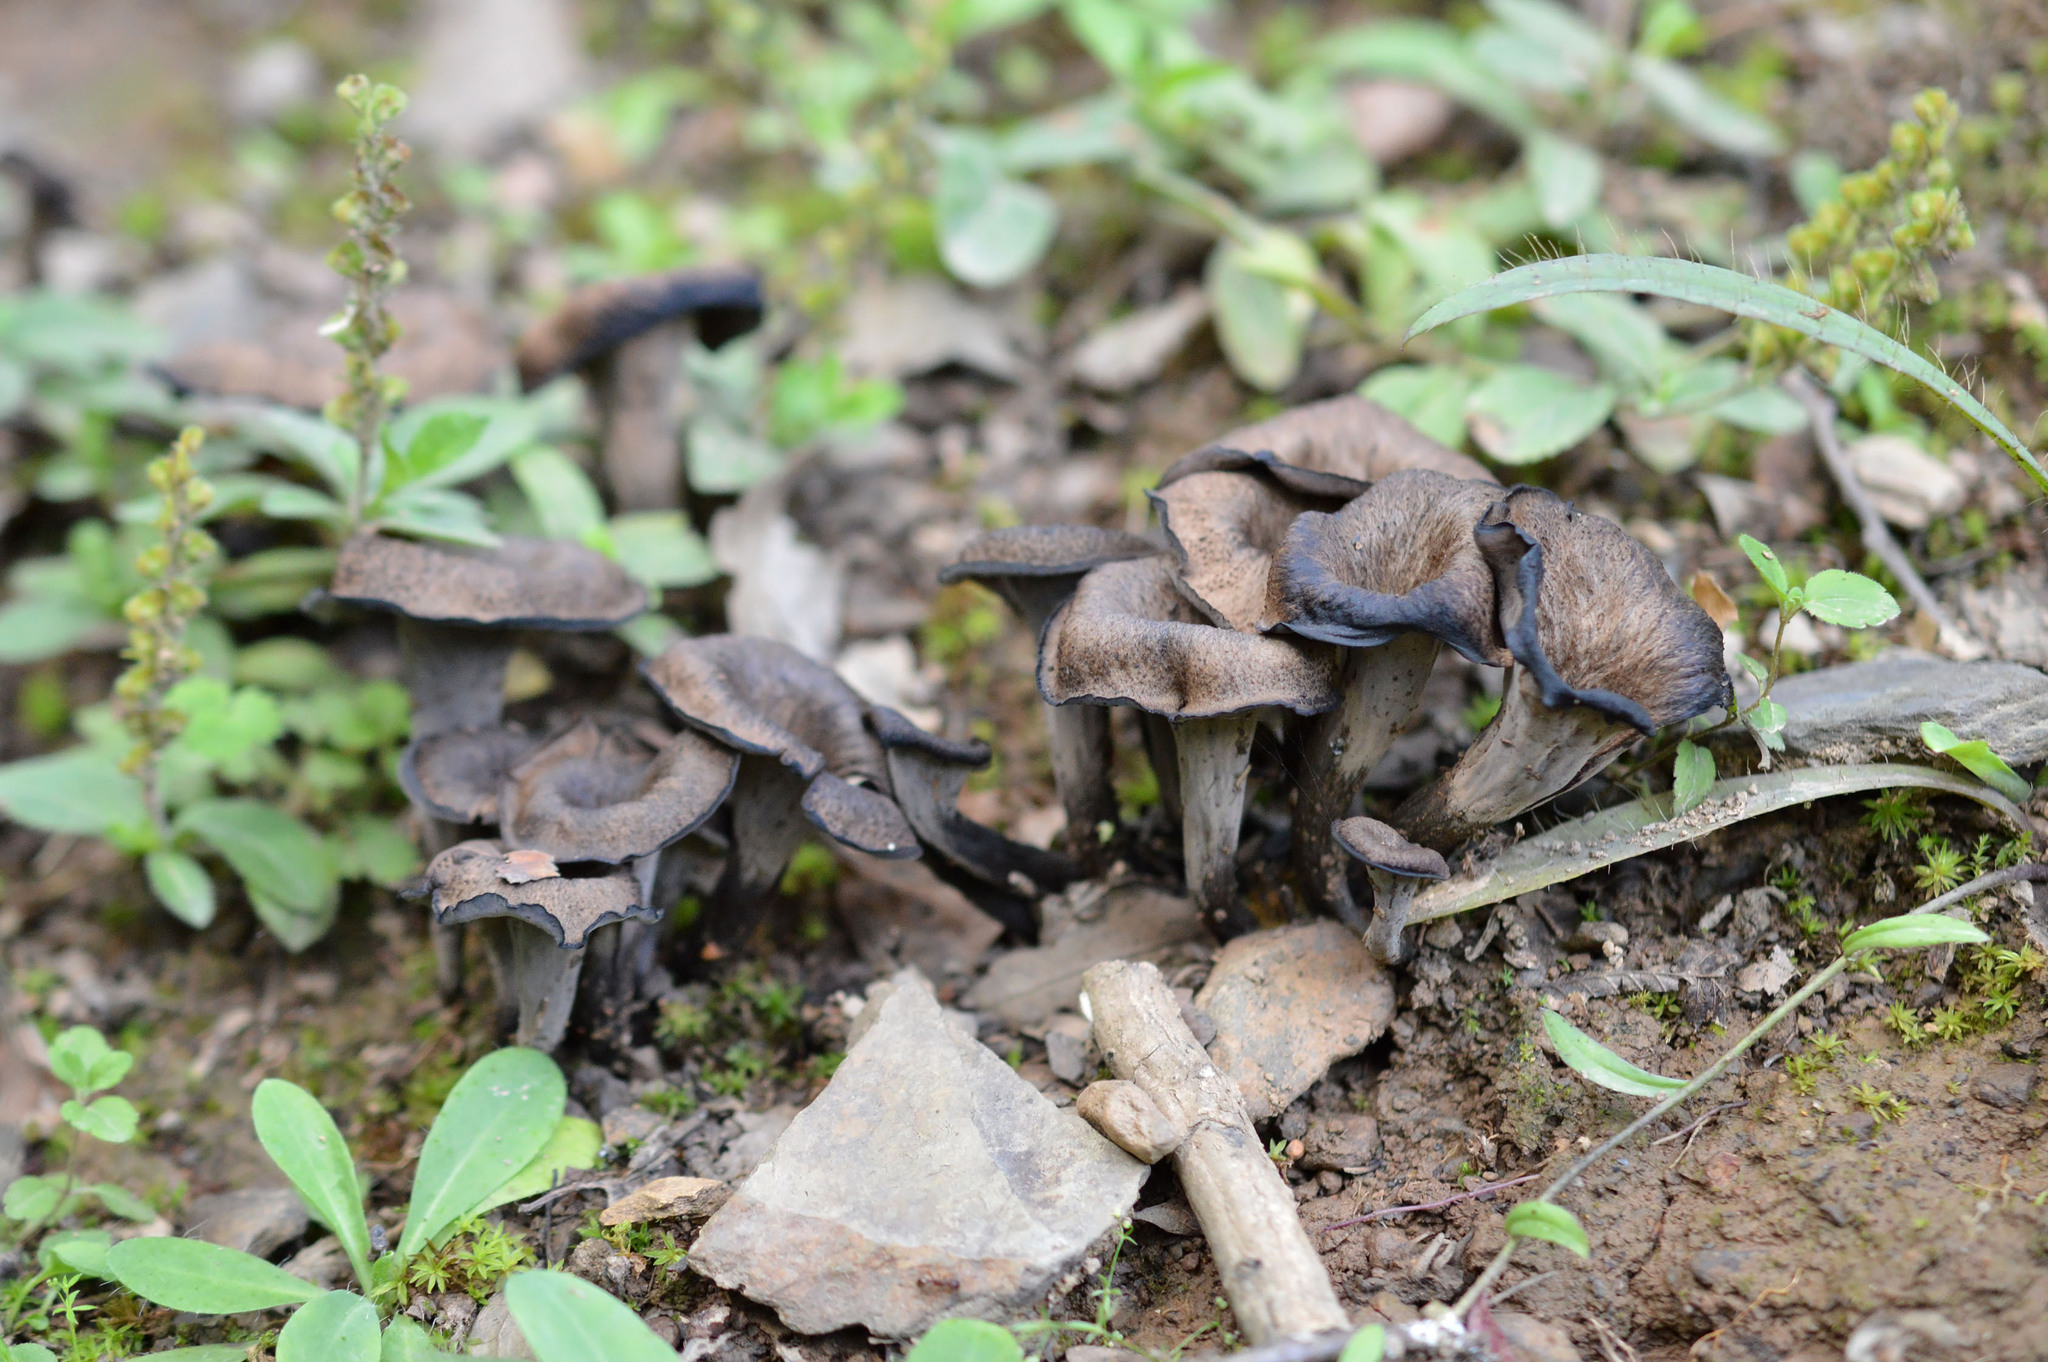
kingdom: Fungi
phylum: Basidiomycota
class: Agaricomycetes
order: Cantharellales
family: Hydnaceae
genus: Craterellus
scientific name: Craterellus cornucopioides
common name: Horn of plenty
